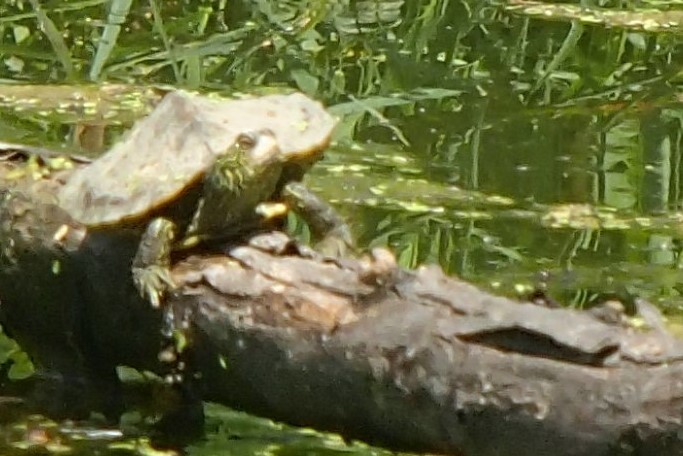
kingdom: Animalia
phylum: Chordata
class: Testudines
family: Emydidae
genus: Graptemys
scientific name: Graptemys geographica
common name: Common map turtle
